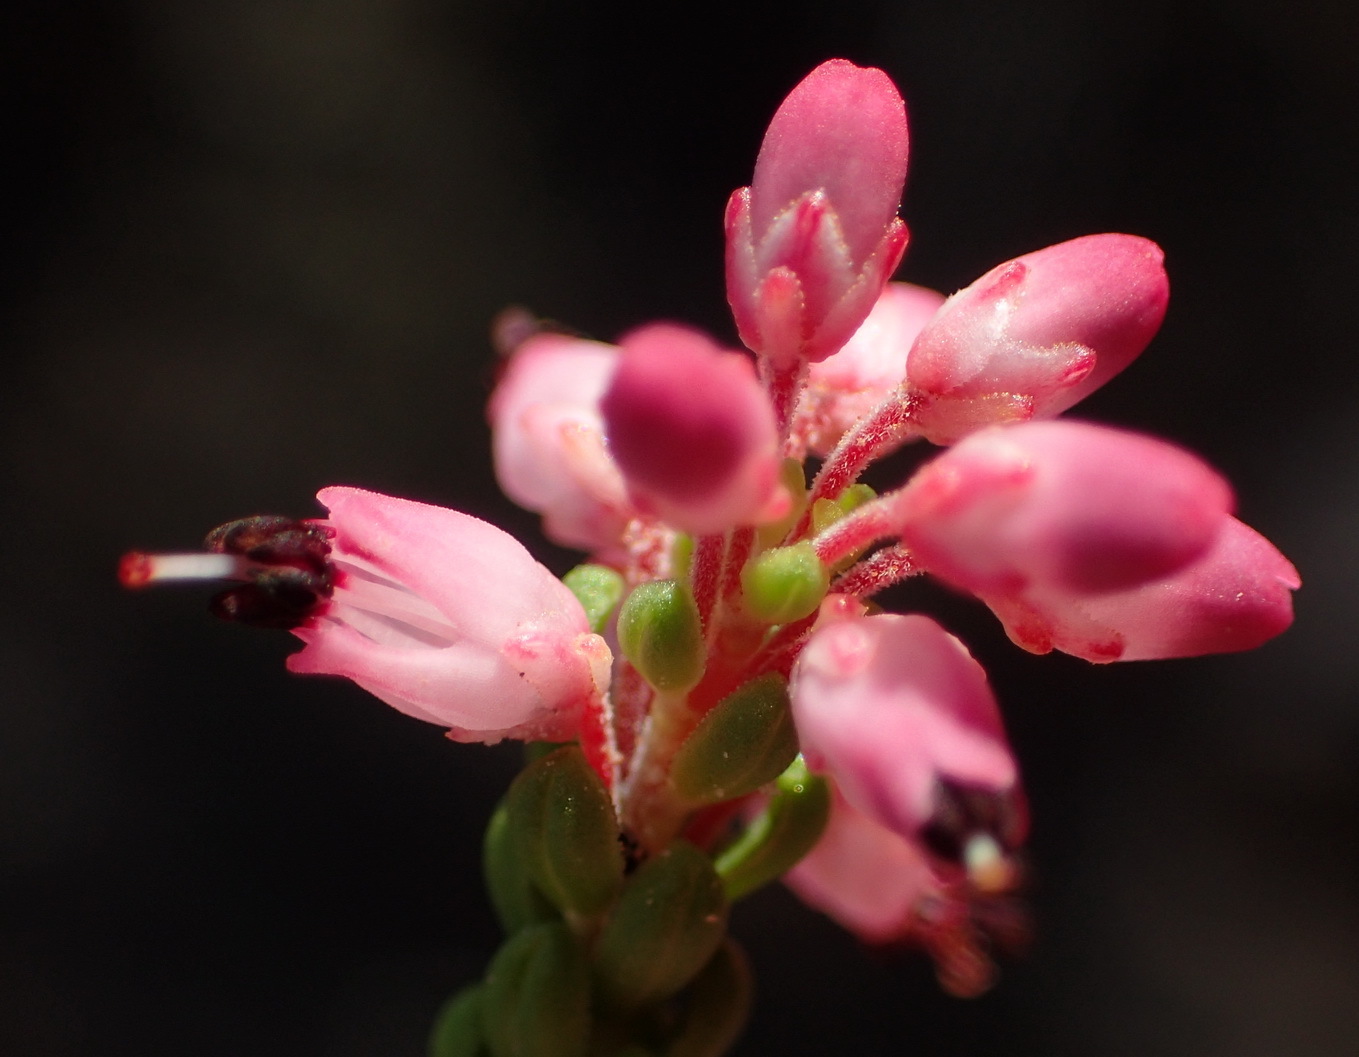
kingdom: Plantae
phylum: Tracheophyta
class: Magnoliopsida
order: Ericales
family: Ericaceae
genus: Erica
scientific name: Erica petraea
